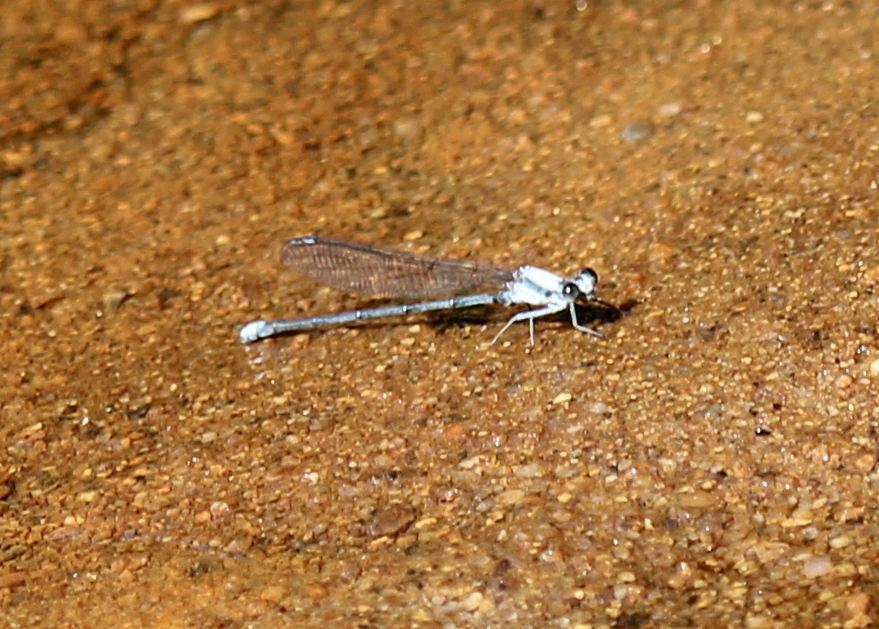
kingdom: Animalia
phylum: Arthropoda
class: Insecta
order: Odonata
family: Coenagrionidae
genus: Argia
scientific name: Argia moesta
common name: Powdered dancer
